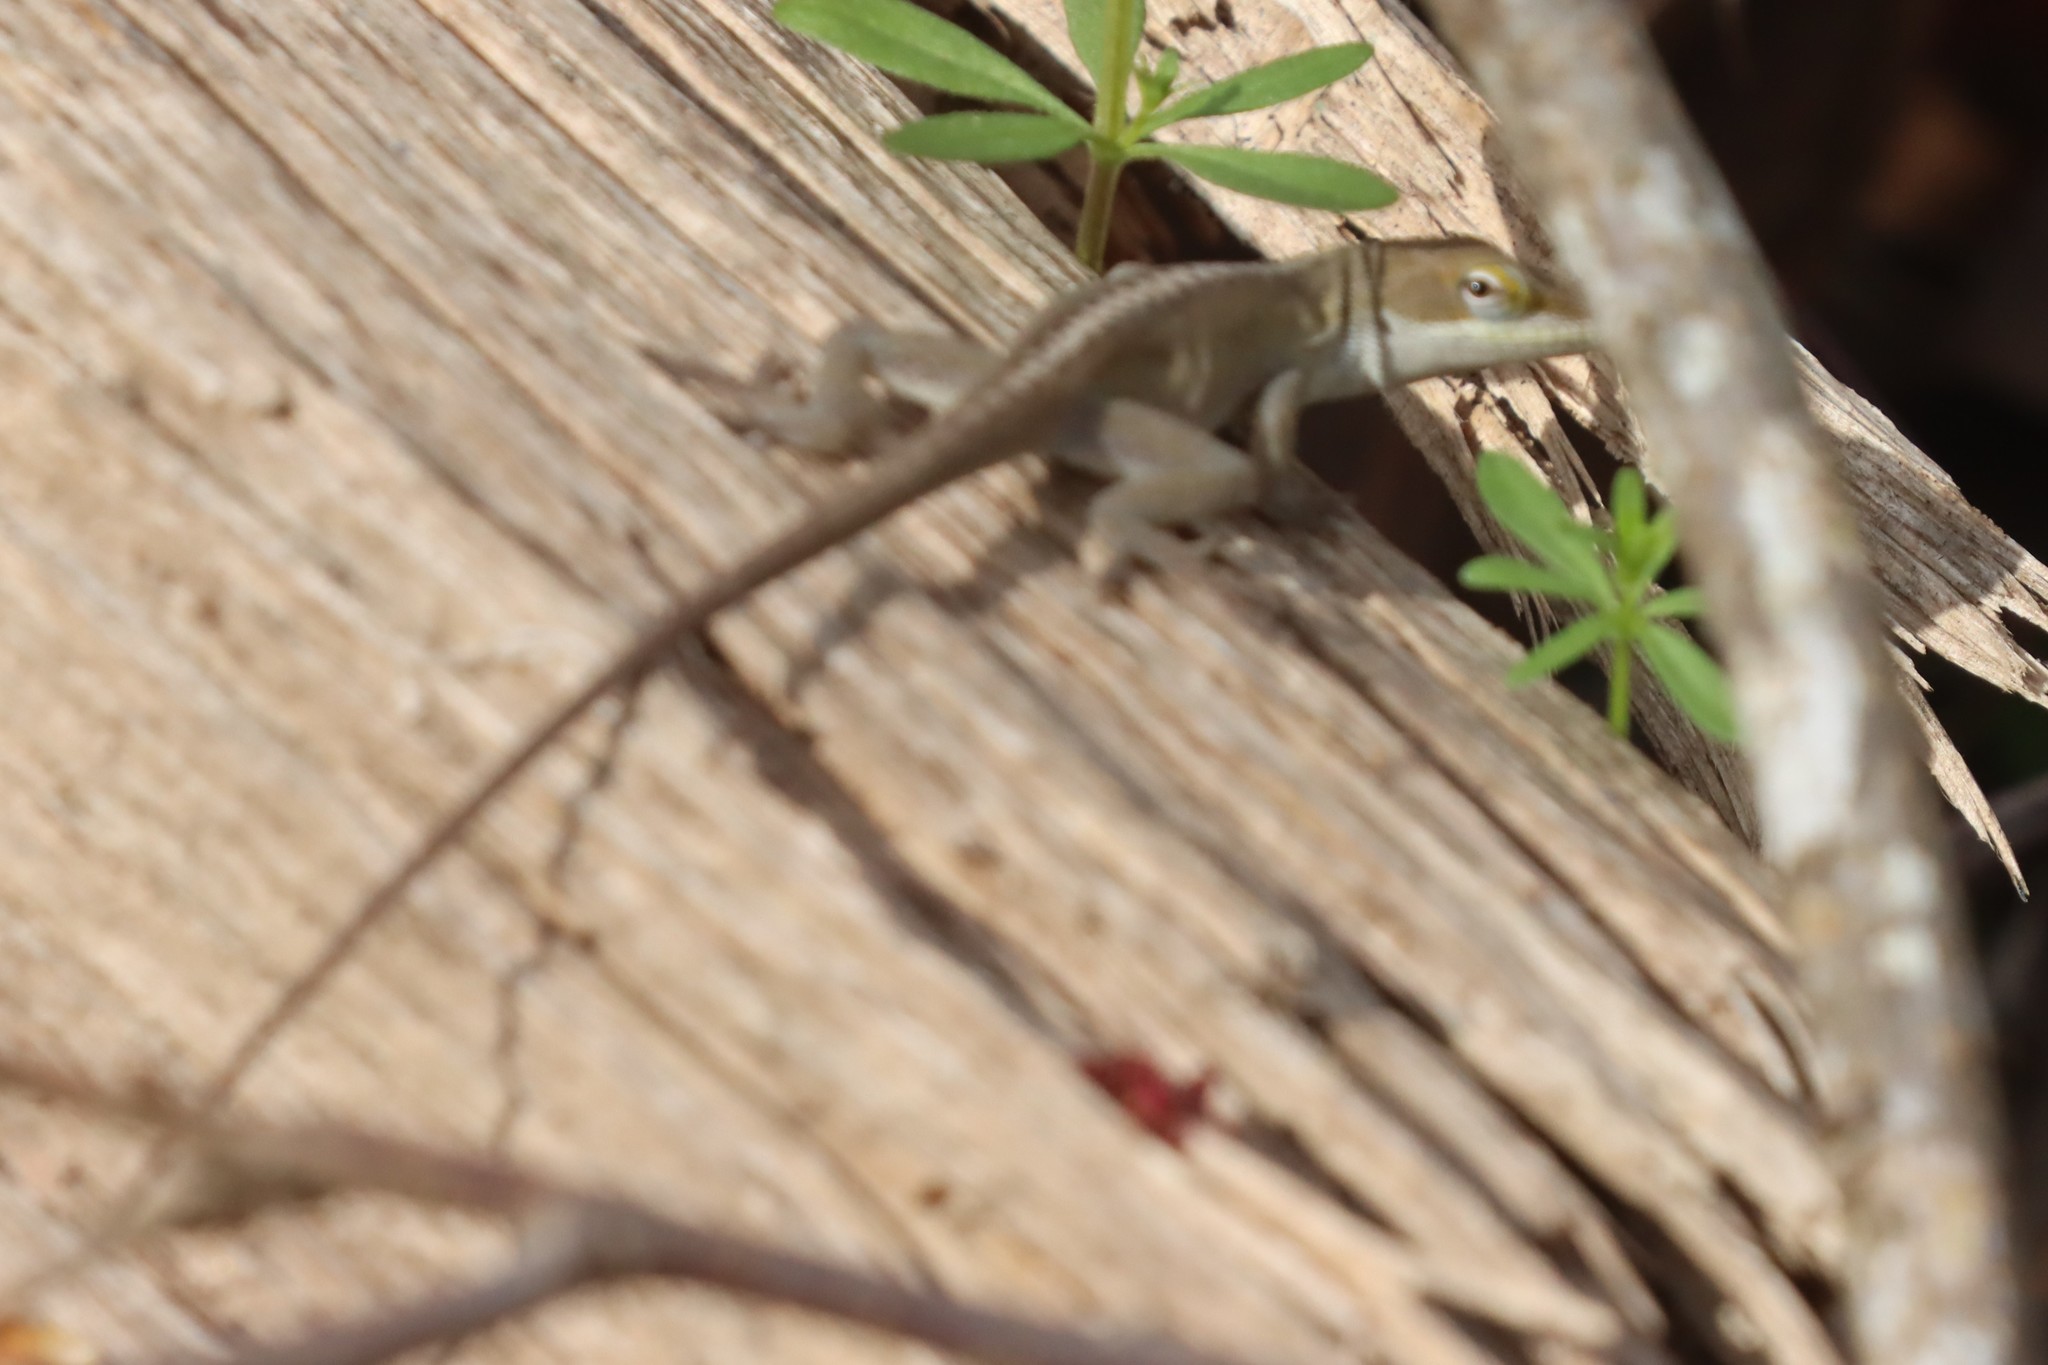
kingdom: Animalia
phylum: Chordata
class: Squamata
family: Dactyloidae
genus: Anolis
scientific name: Anolis carolinensis
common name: Green anole
